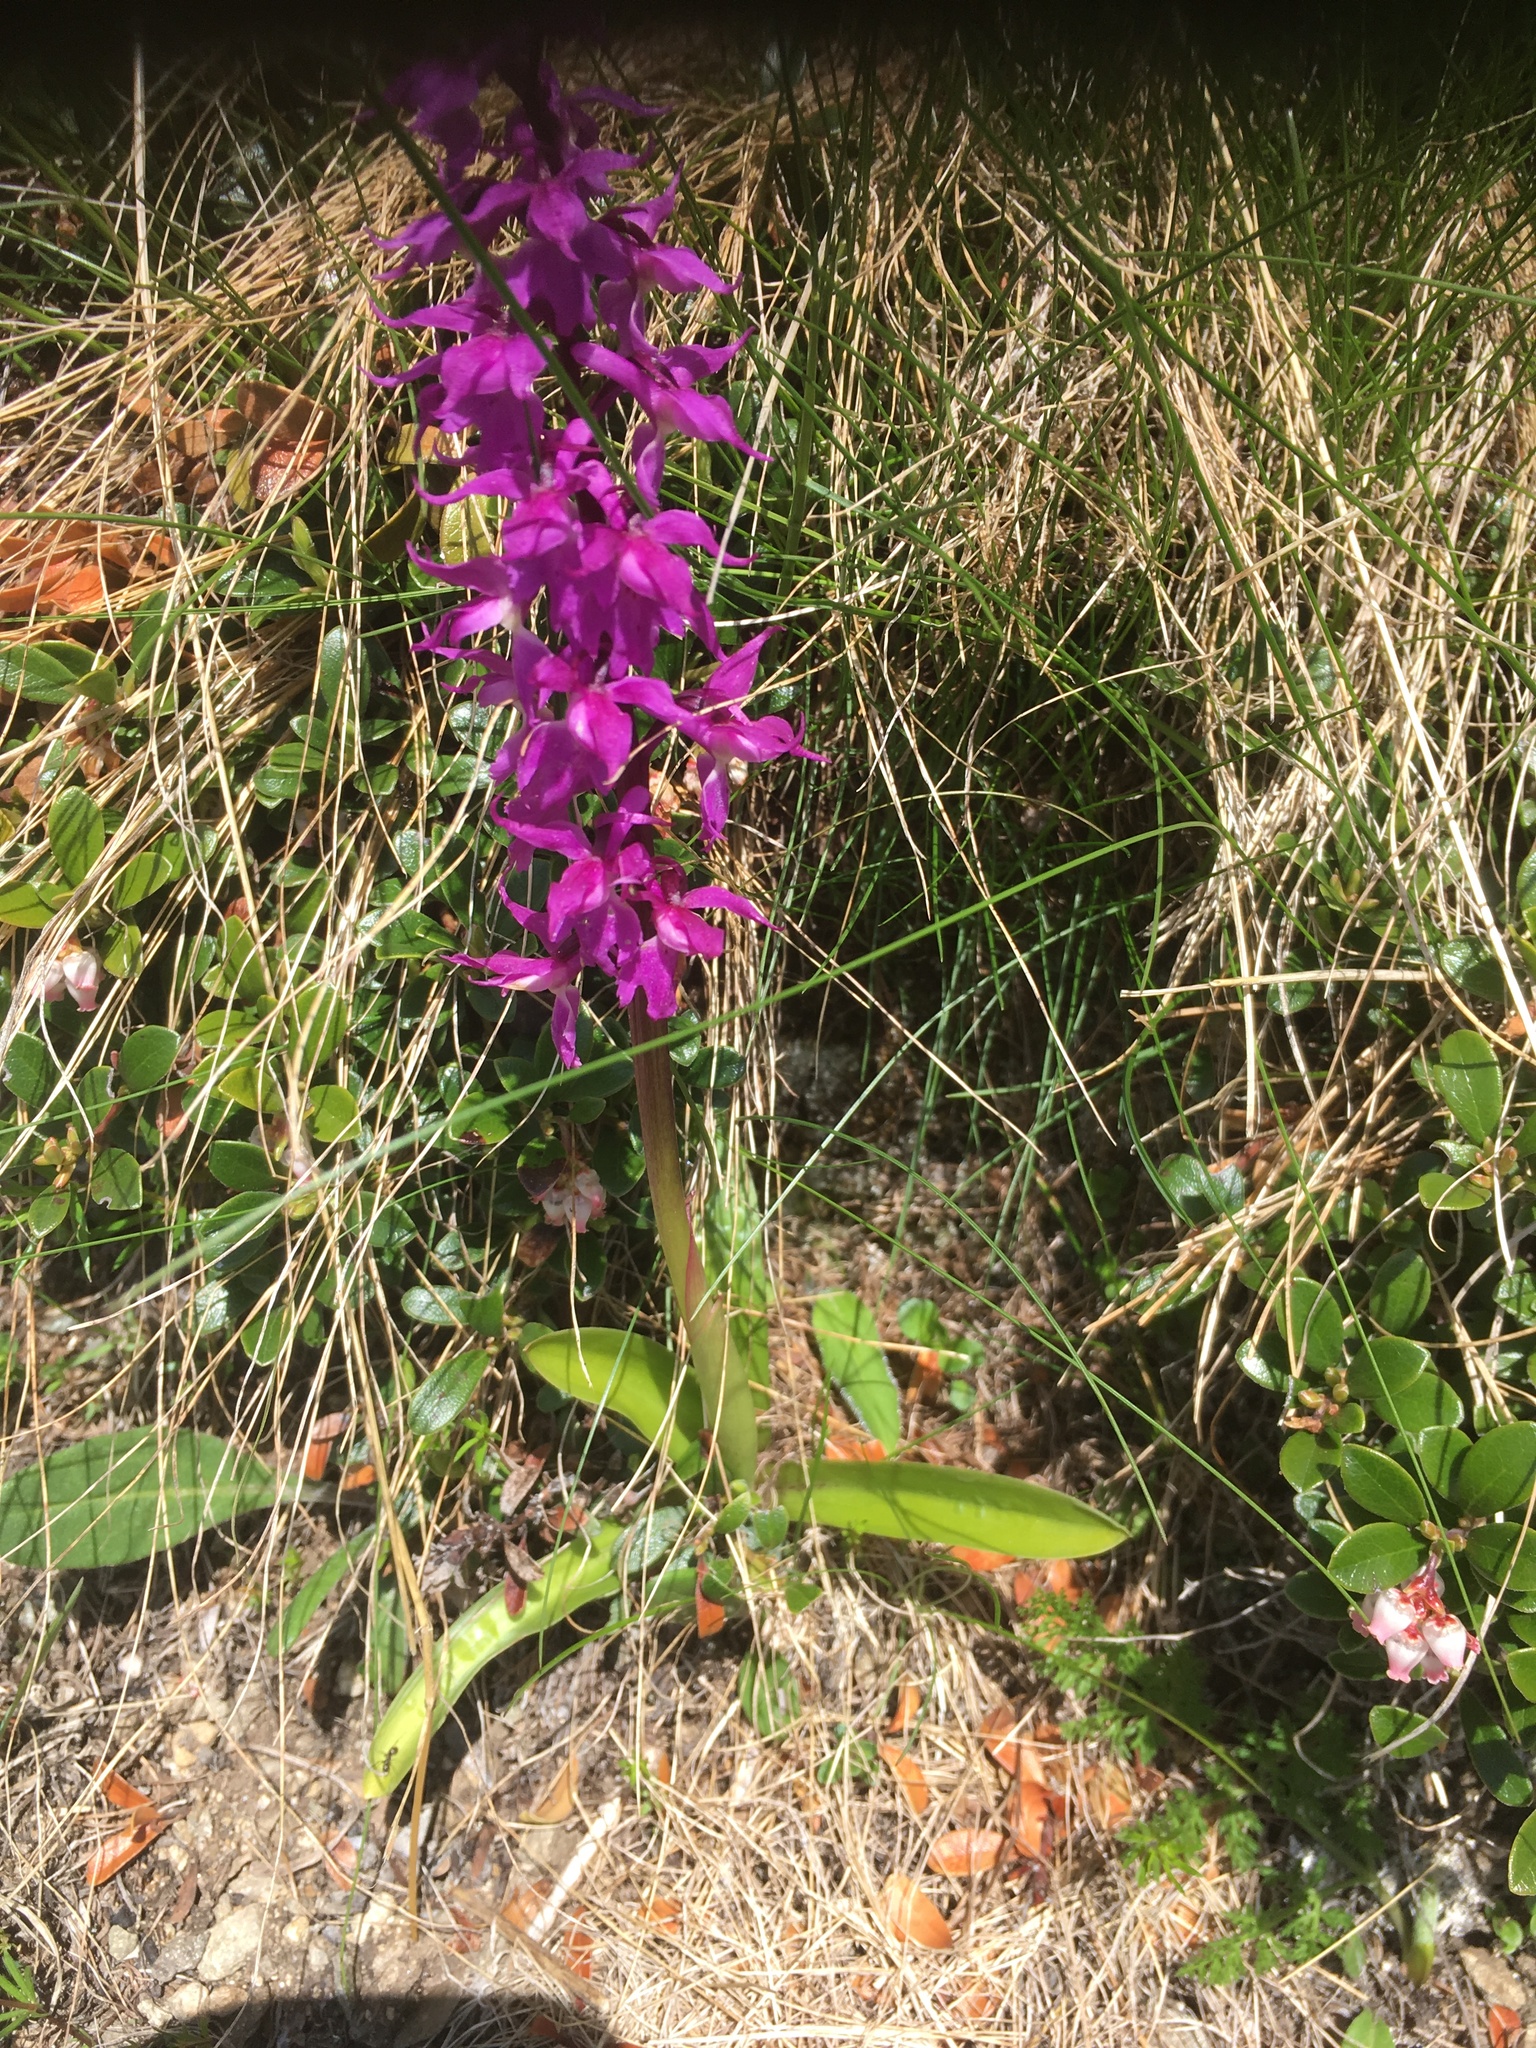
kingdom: Plantae
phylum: Tracheophyta
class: Liliopsida
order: Asparagales
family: Orchidaceae
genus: Orchis
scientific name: Orchis mascula
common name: Early-purple orchid
